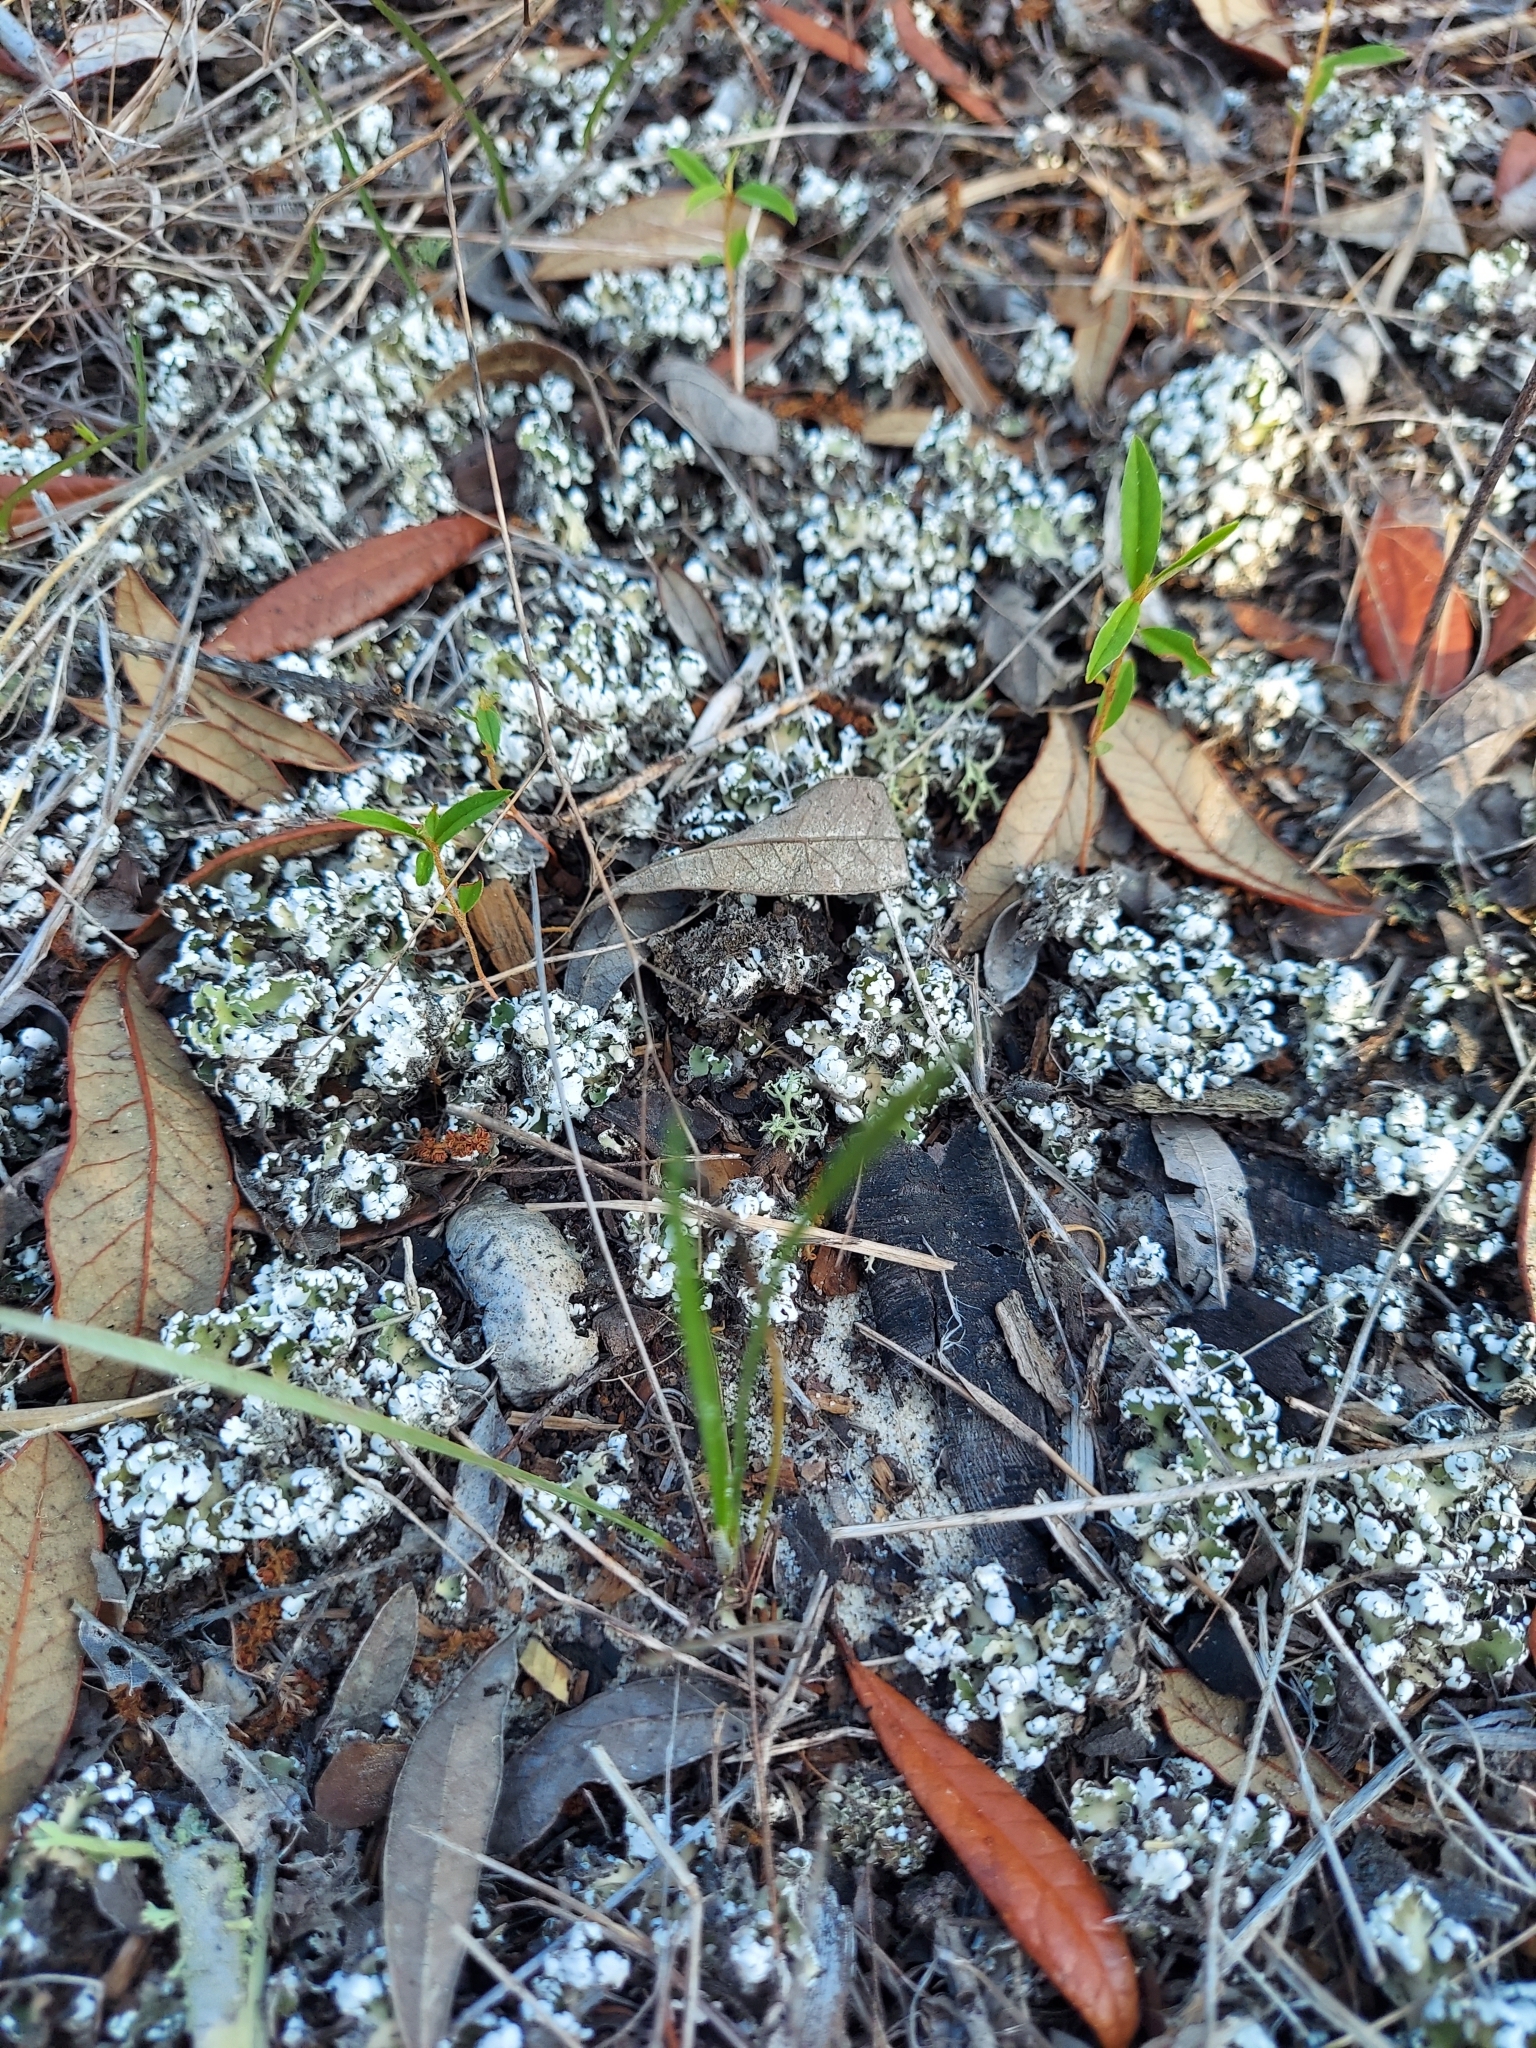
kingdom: Fungi
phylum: Ascomycota
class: Lecanoromycetes
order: Lecanorales
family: Cladoniaceae
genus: Cladonia
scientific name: Cladonia prostrata
